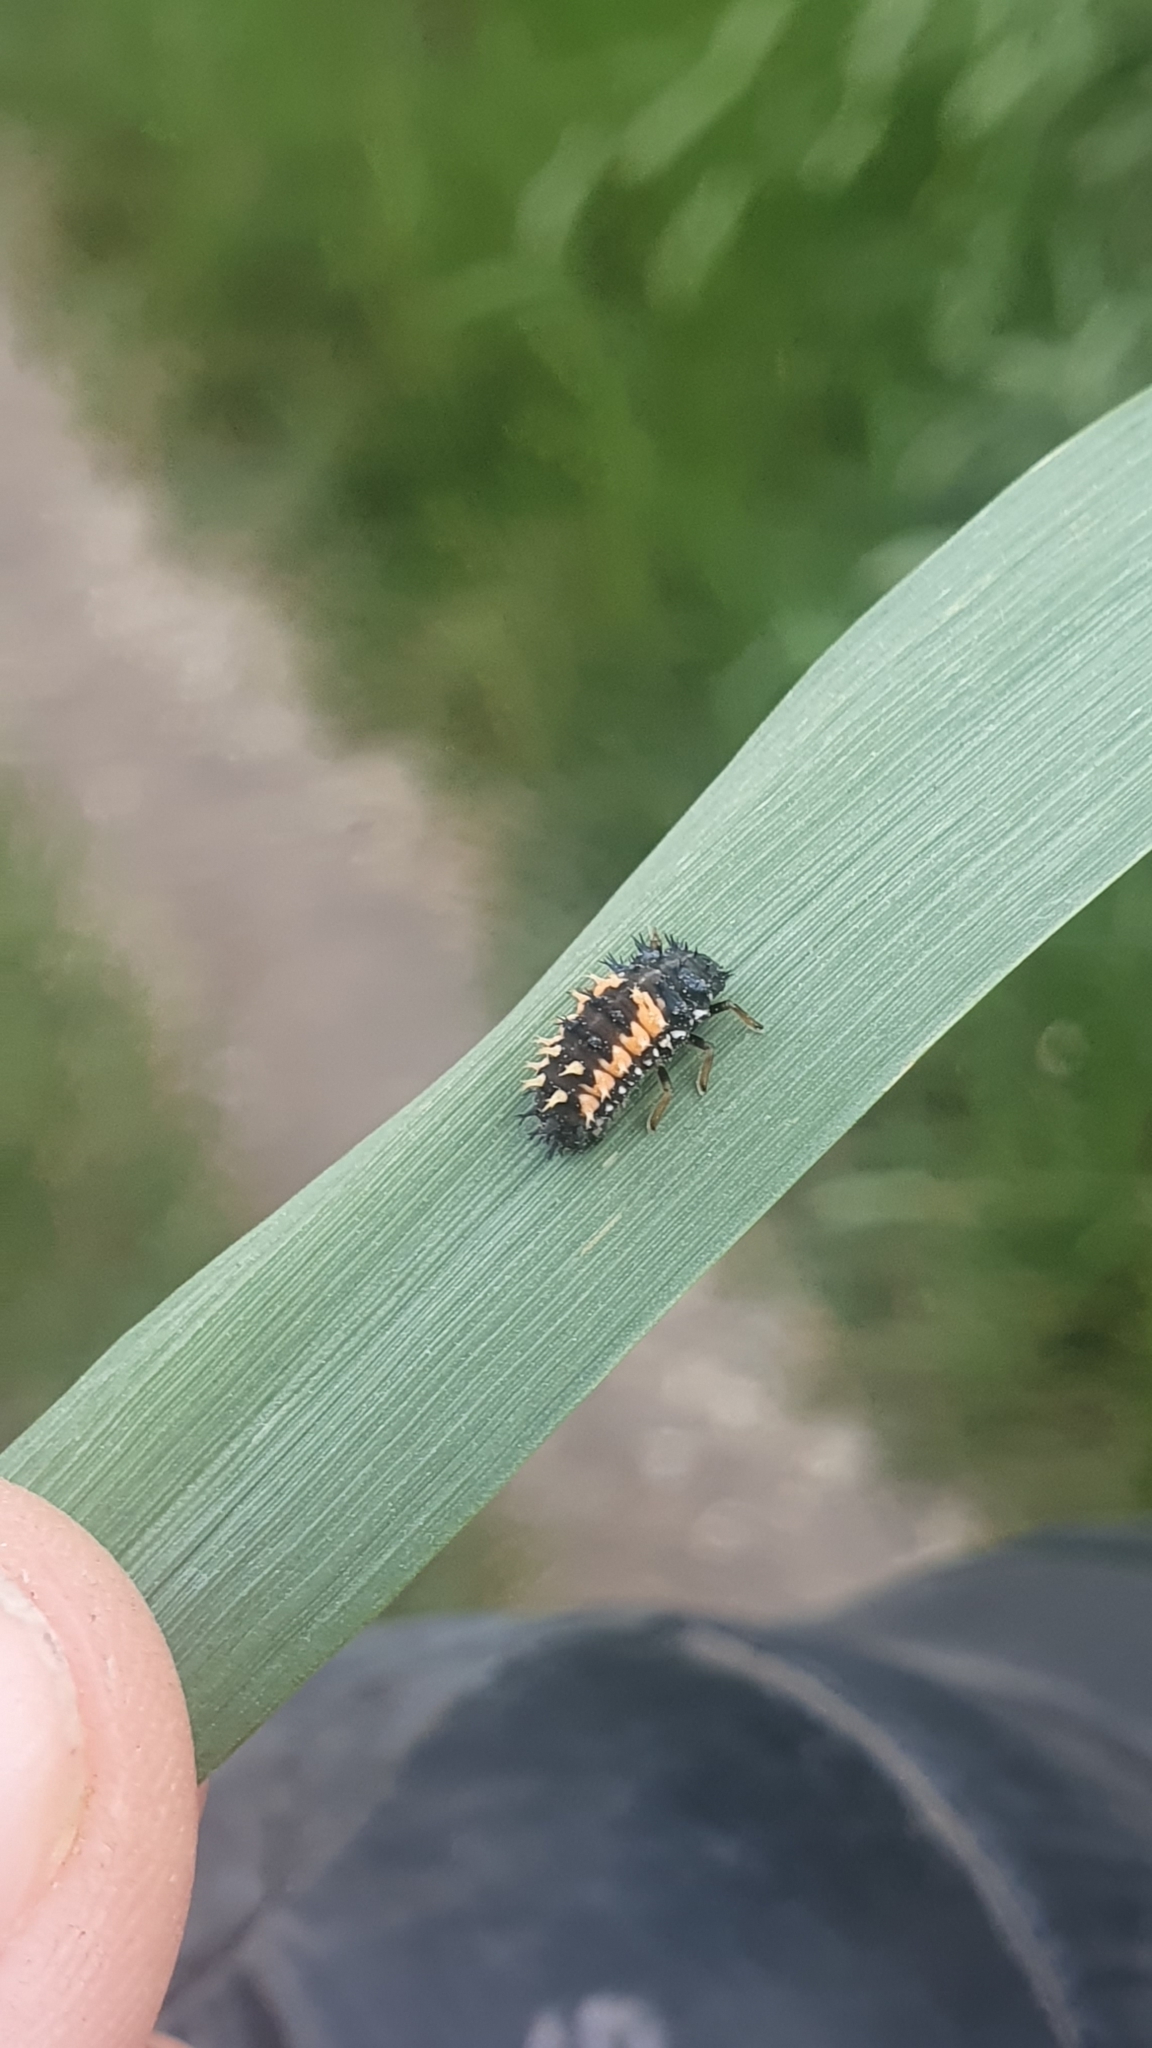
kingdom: Animalia
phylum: Arthropoda
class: Insecta
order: Coleoptera
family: Coccinellidae
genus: Harmonia
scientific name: Harmonia axyridis
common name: Harlequin ladybird
